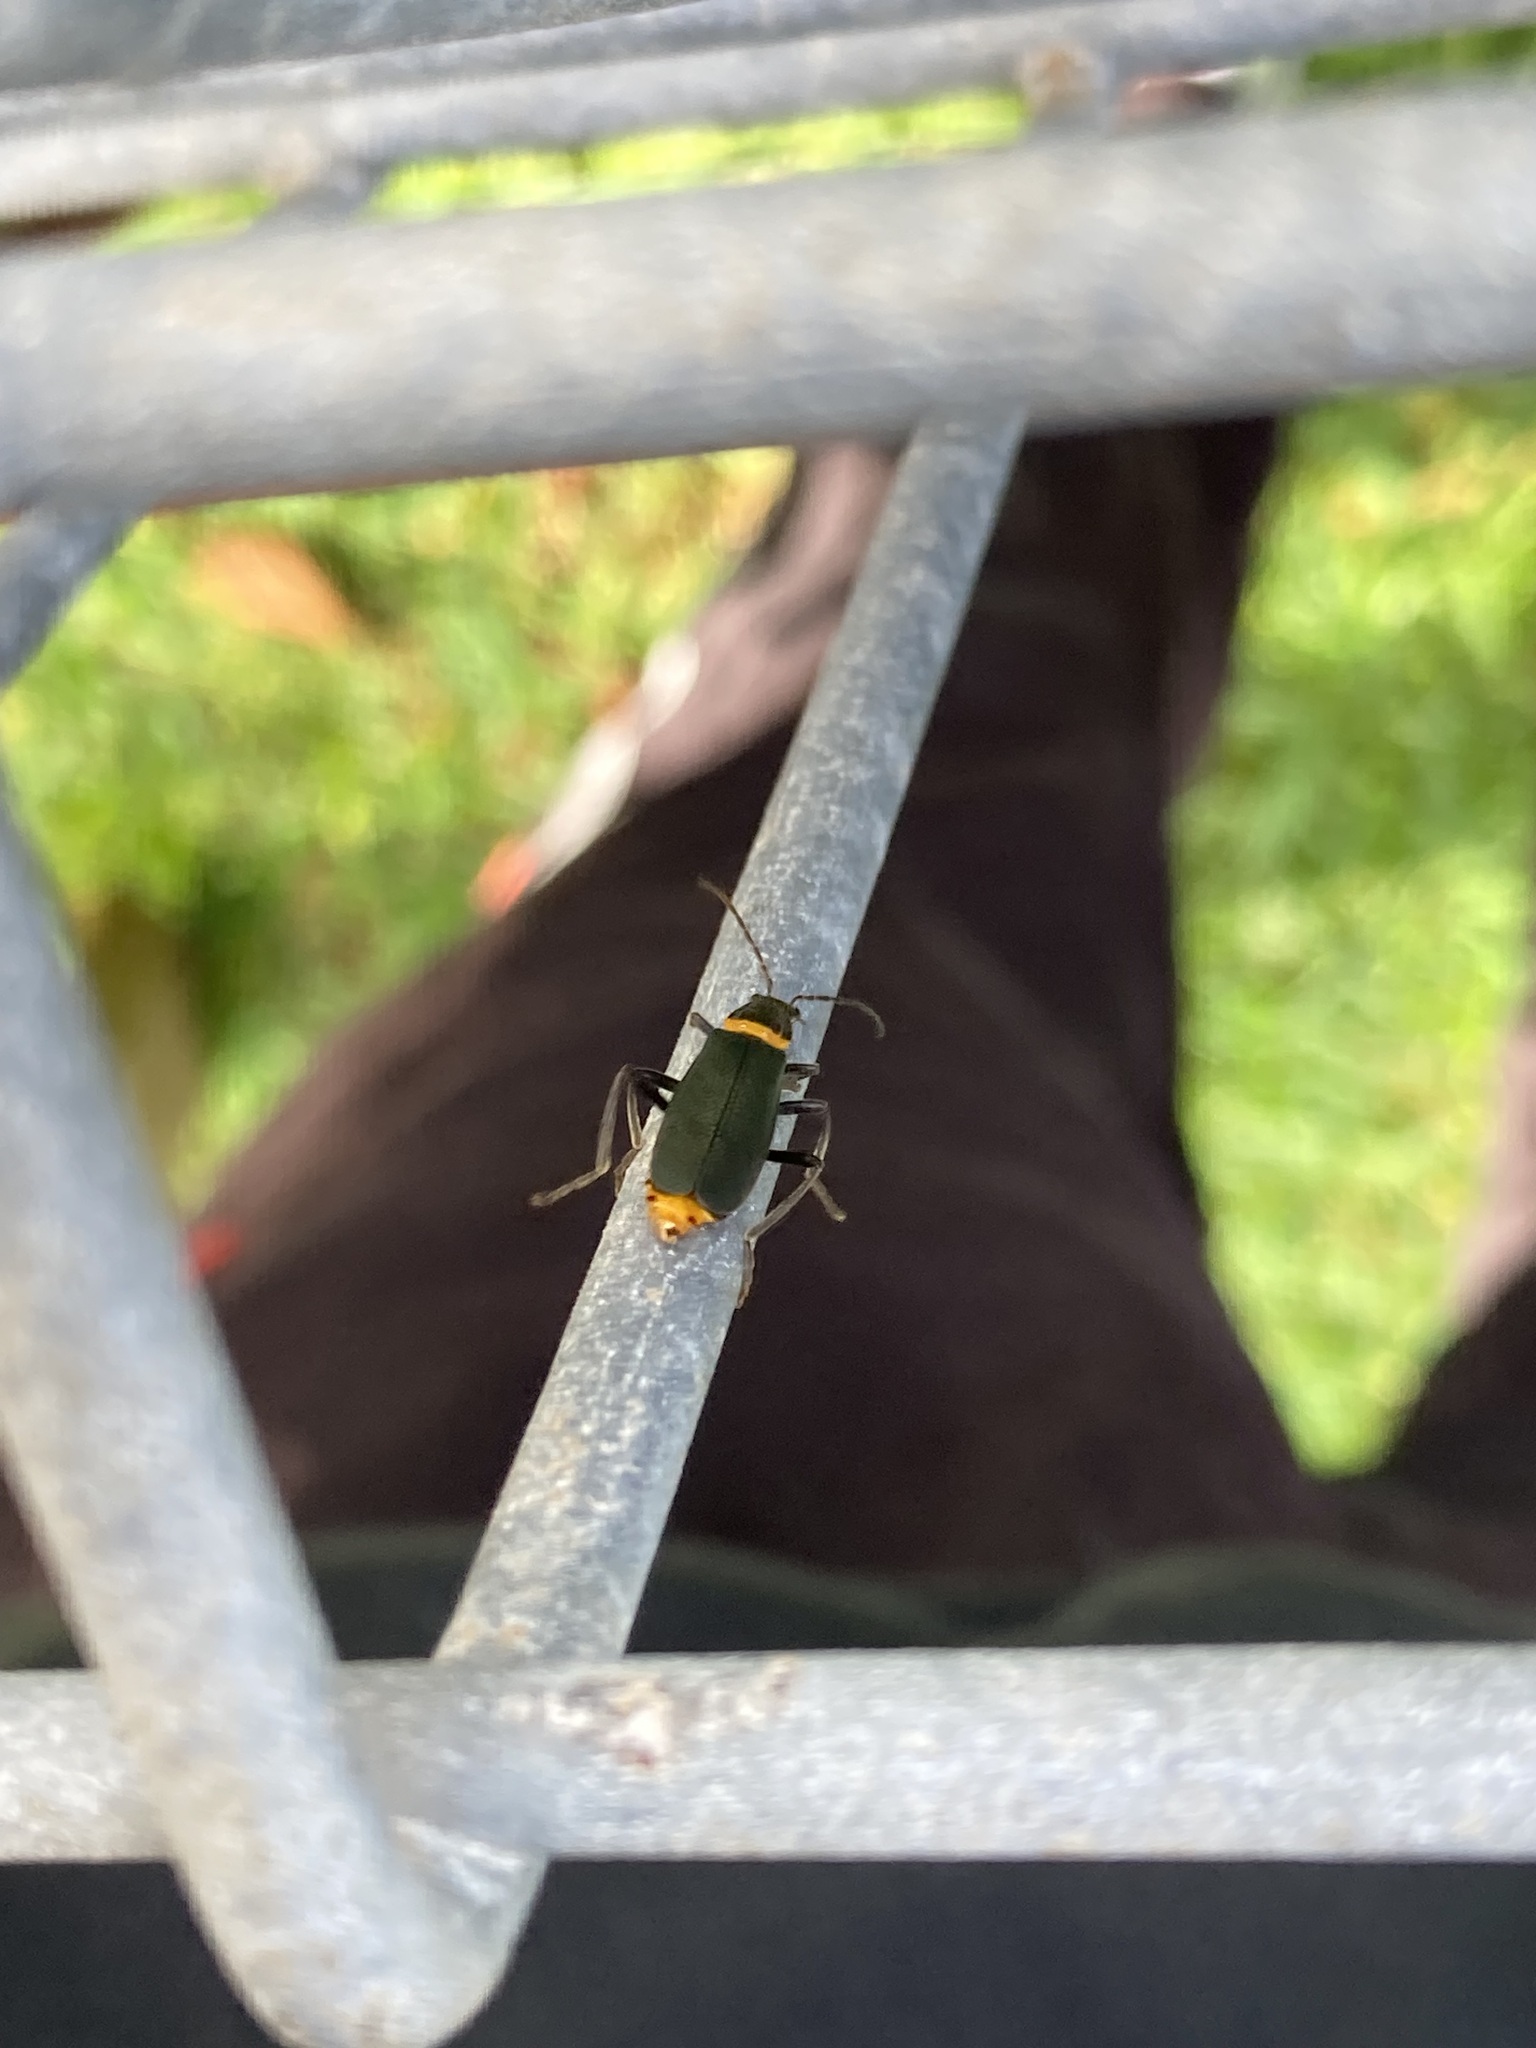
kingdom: Animalia
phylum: Arthropoda
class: Insecta
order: Coleoptera
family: Cantharidae
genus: Chauliognathus
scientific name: Chauliognathus
